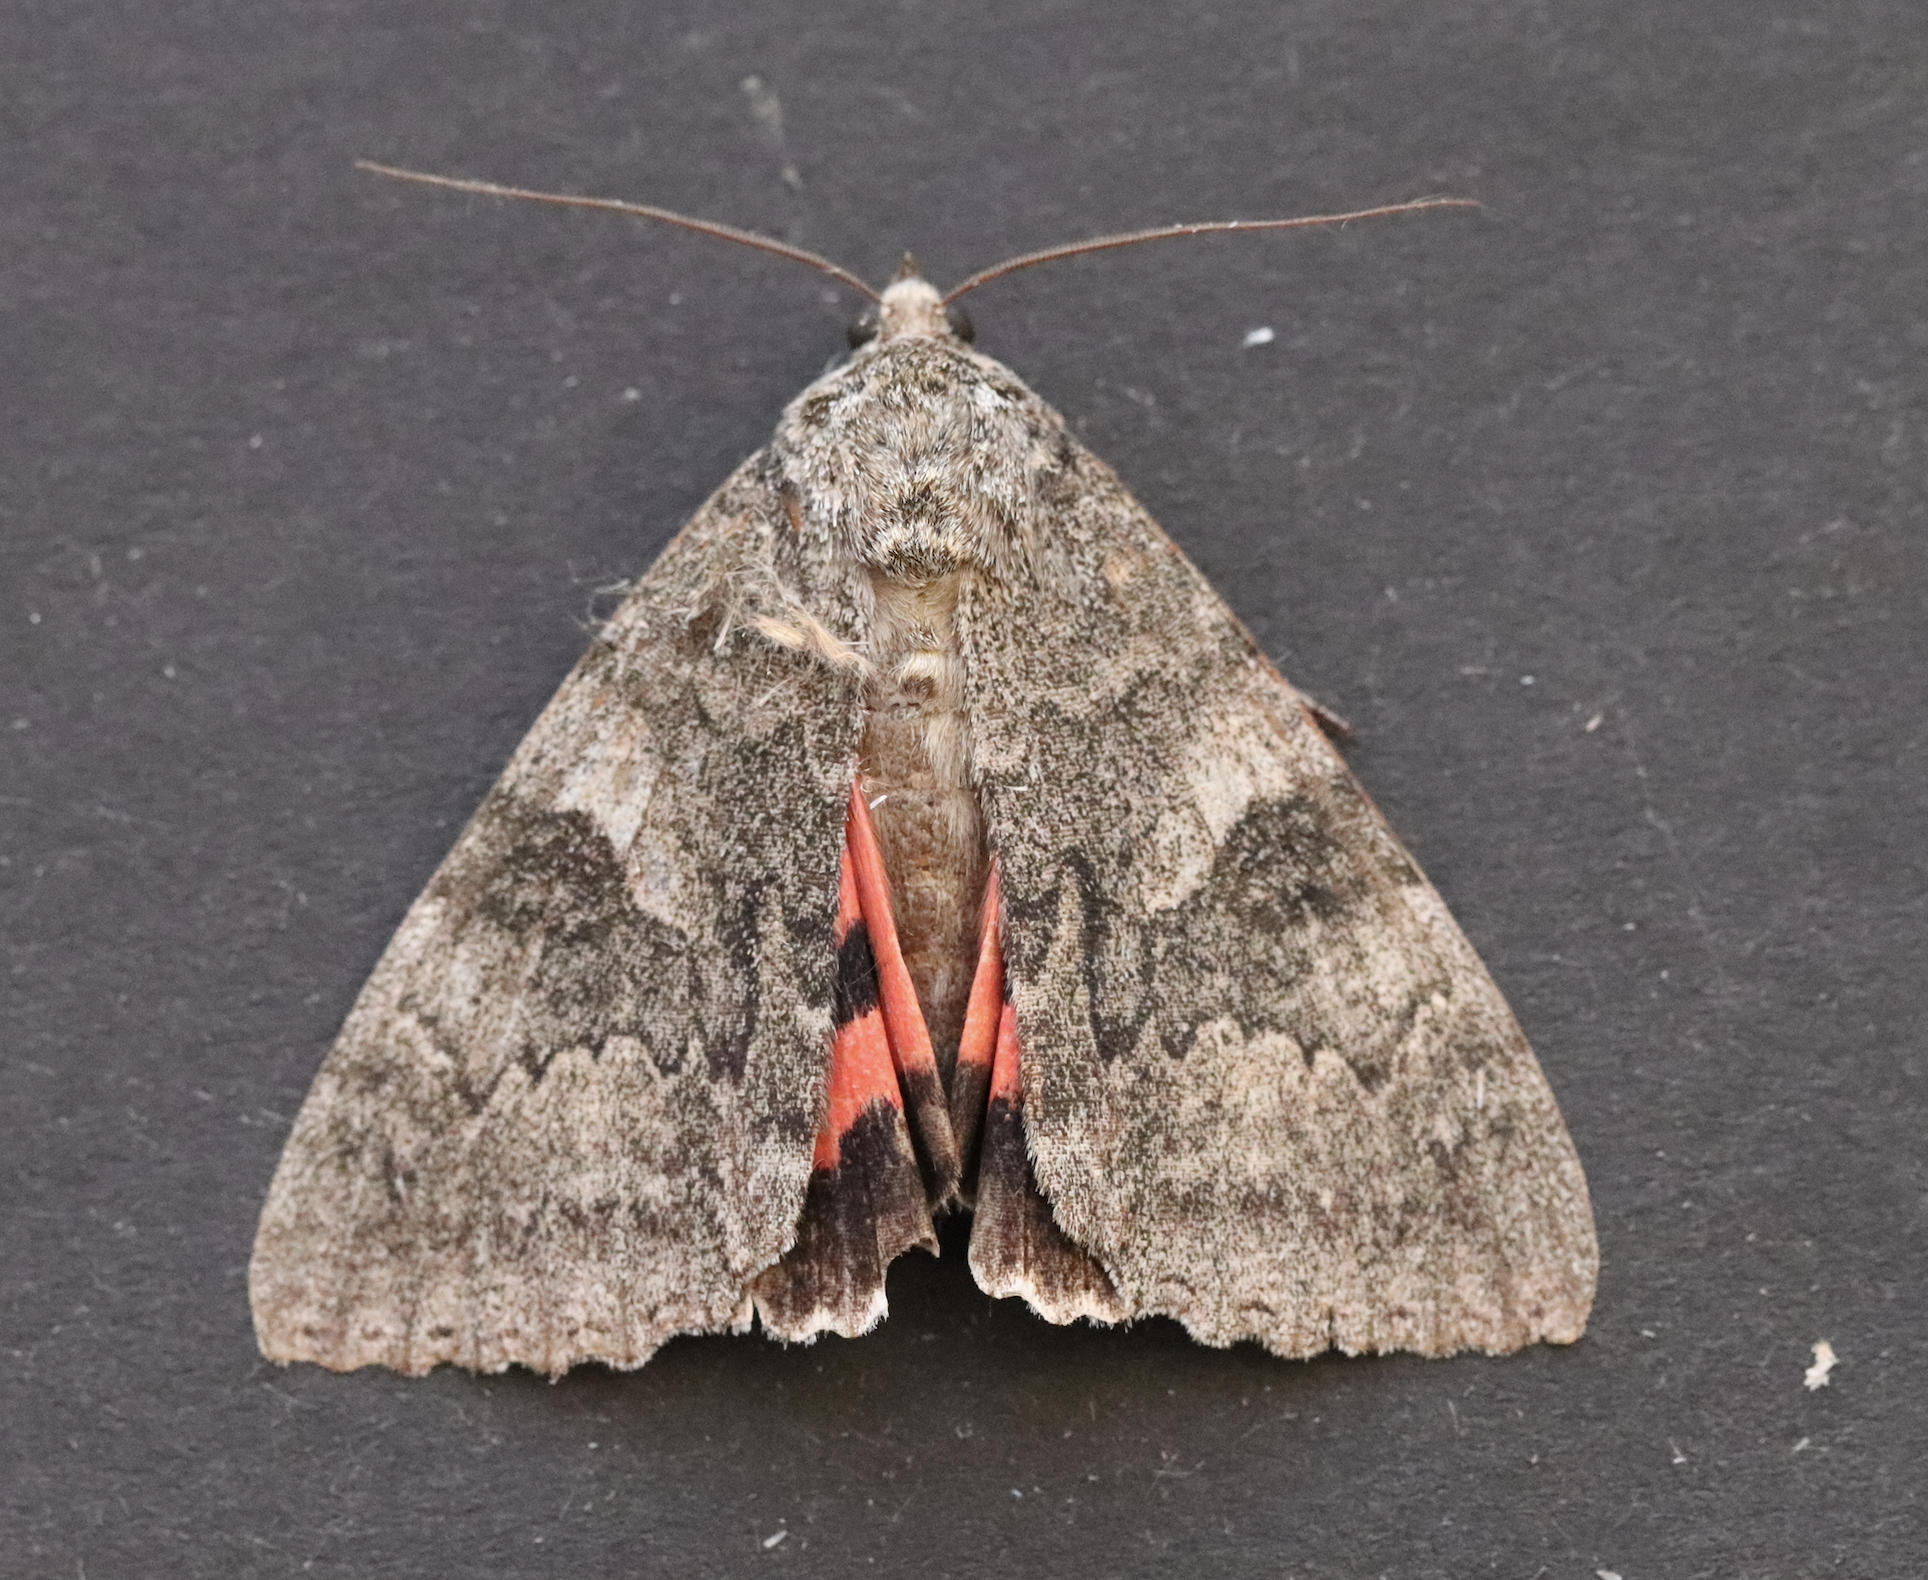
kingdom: Animalia
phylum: Arthropoda
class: Insecta
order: Lepidoptera
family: Erebidae
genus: Catocala
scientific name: Catocala nupta
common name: Red underwing
